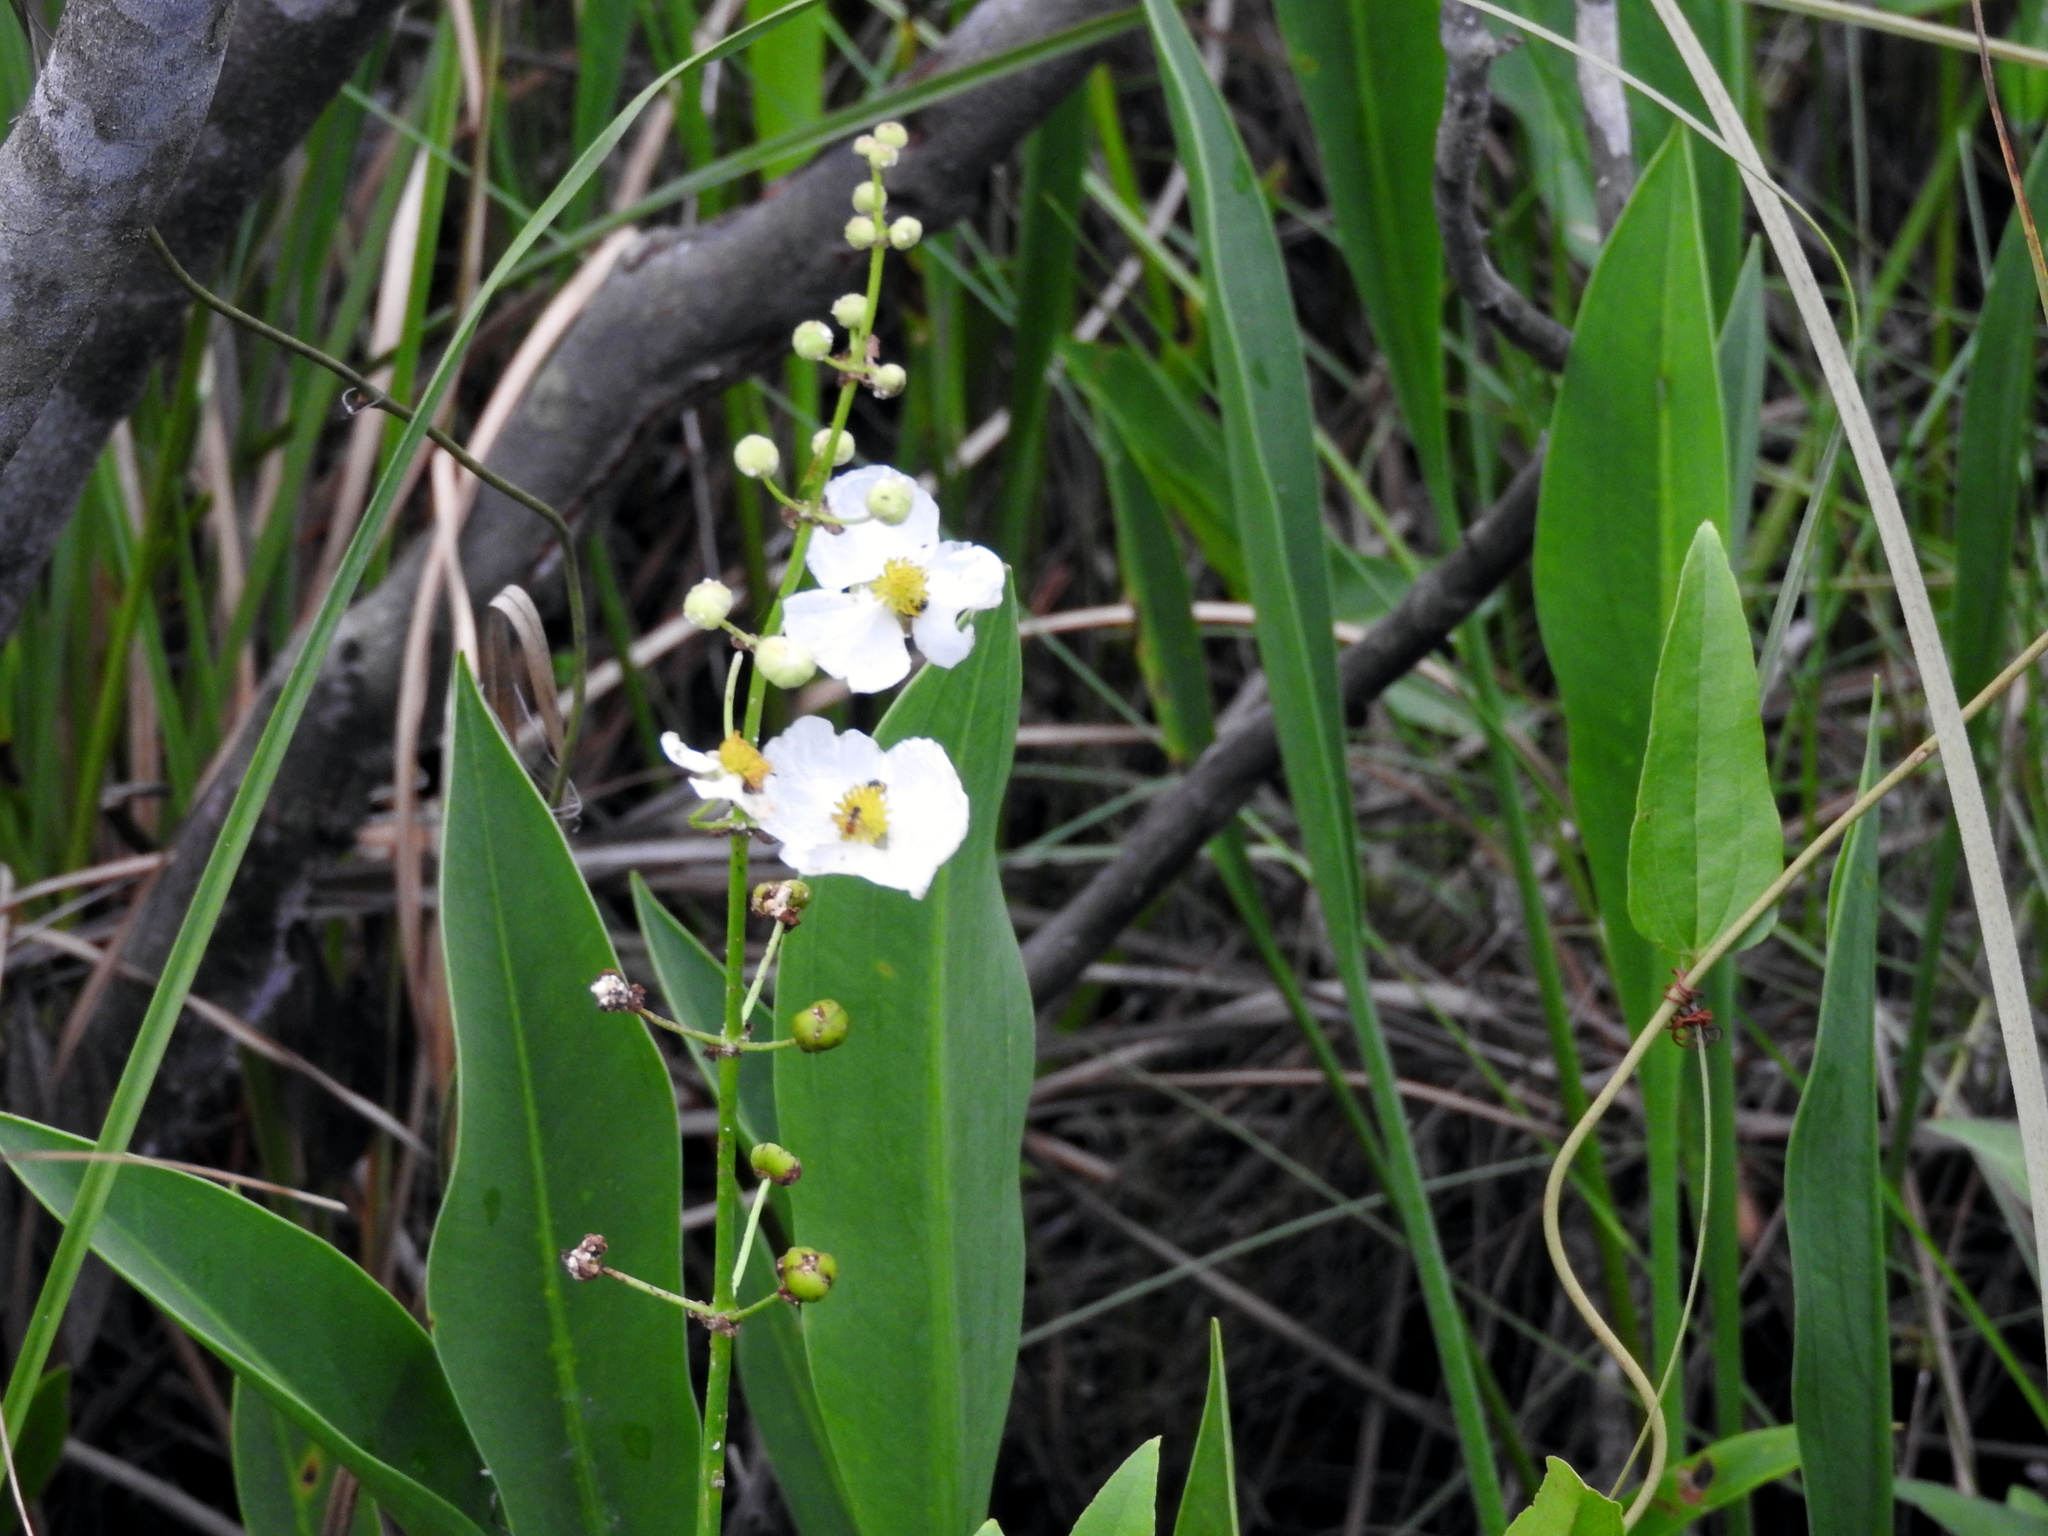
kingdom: Plantae
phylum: Tracheophyta
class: Liliopsida
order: Alismatales
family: Alismataceae
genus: Sagittaria
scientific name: Sagittaria lancifolia
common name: Lance-leaf arrowhead
